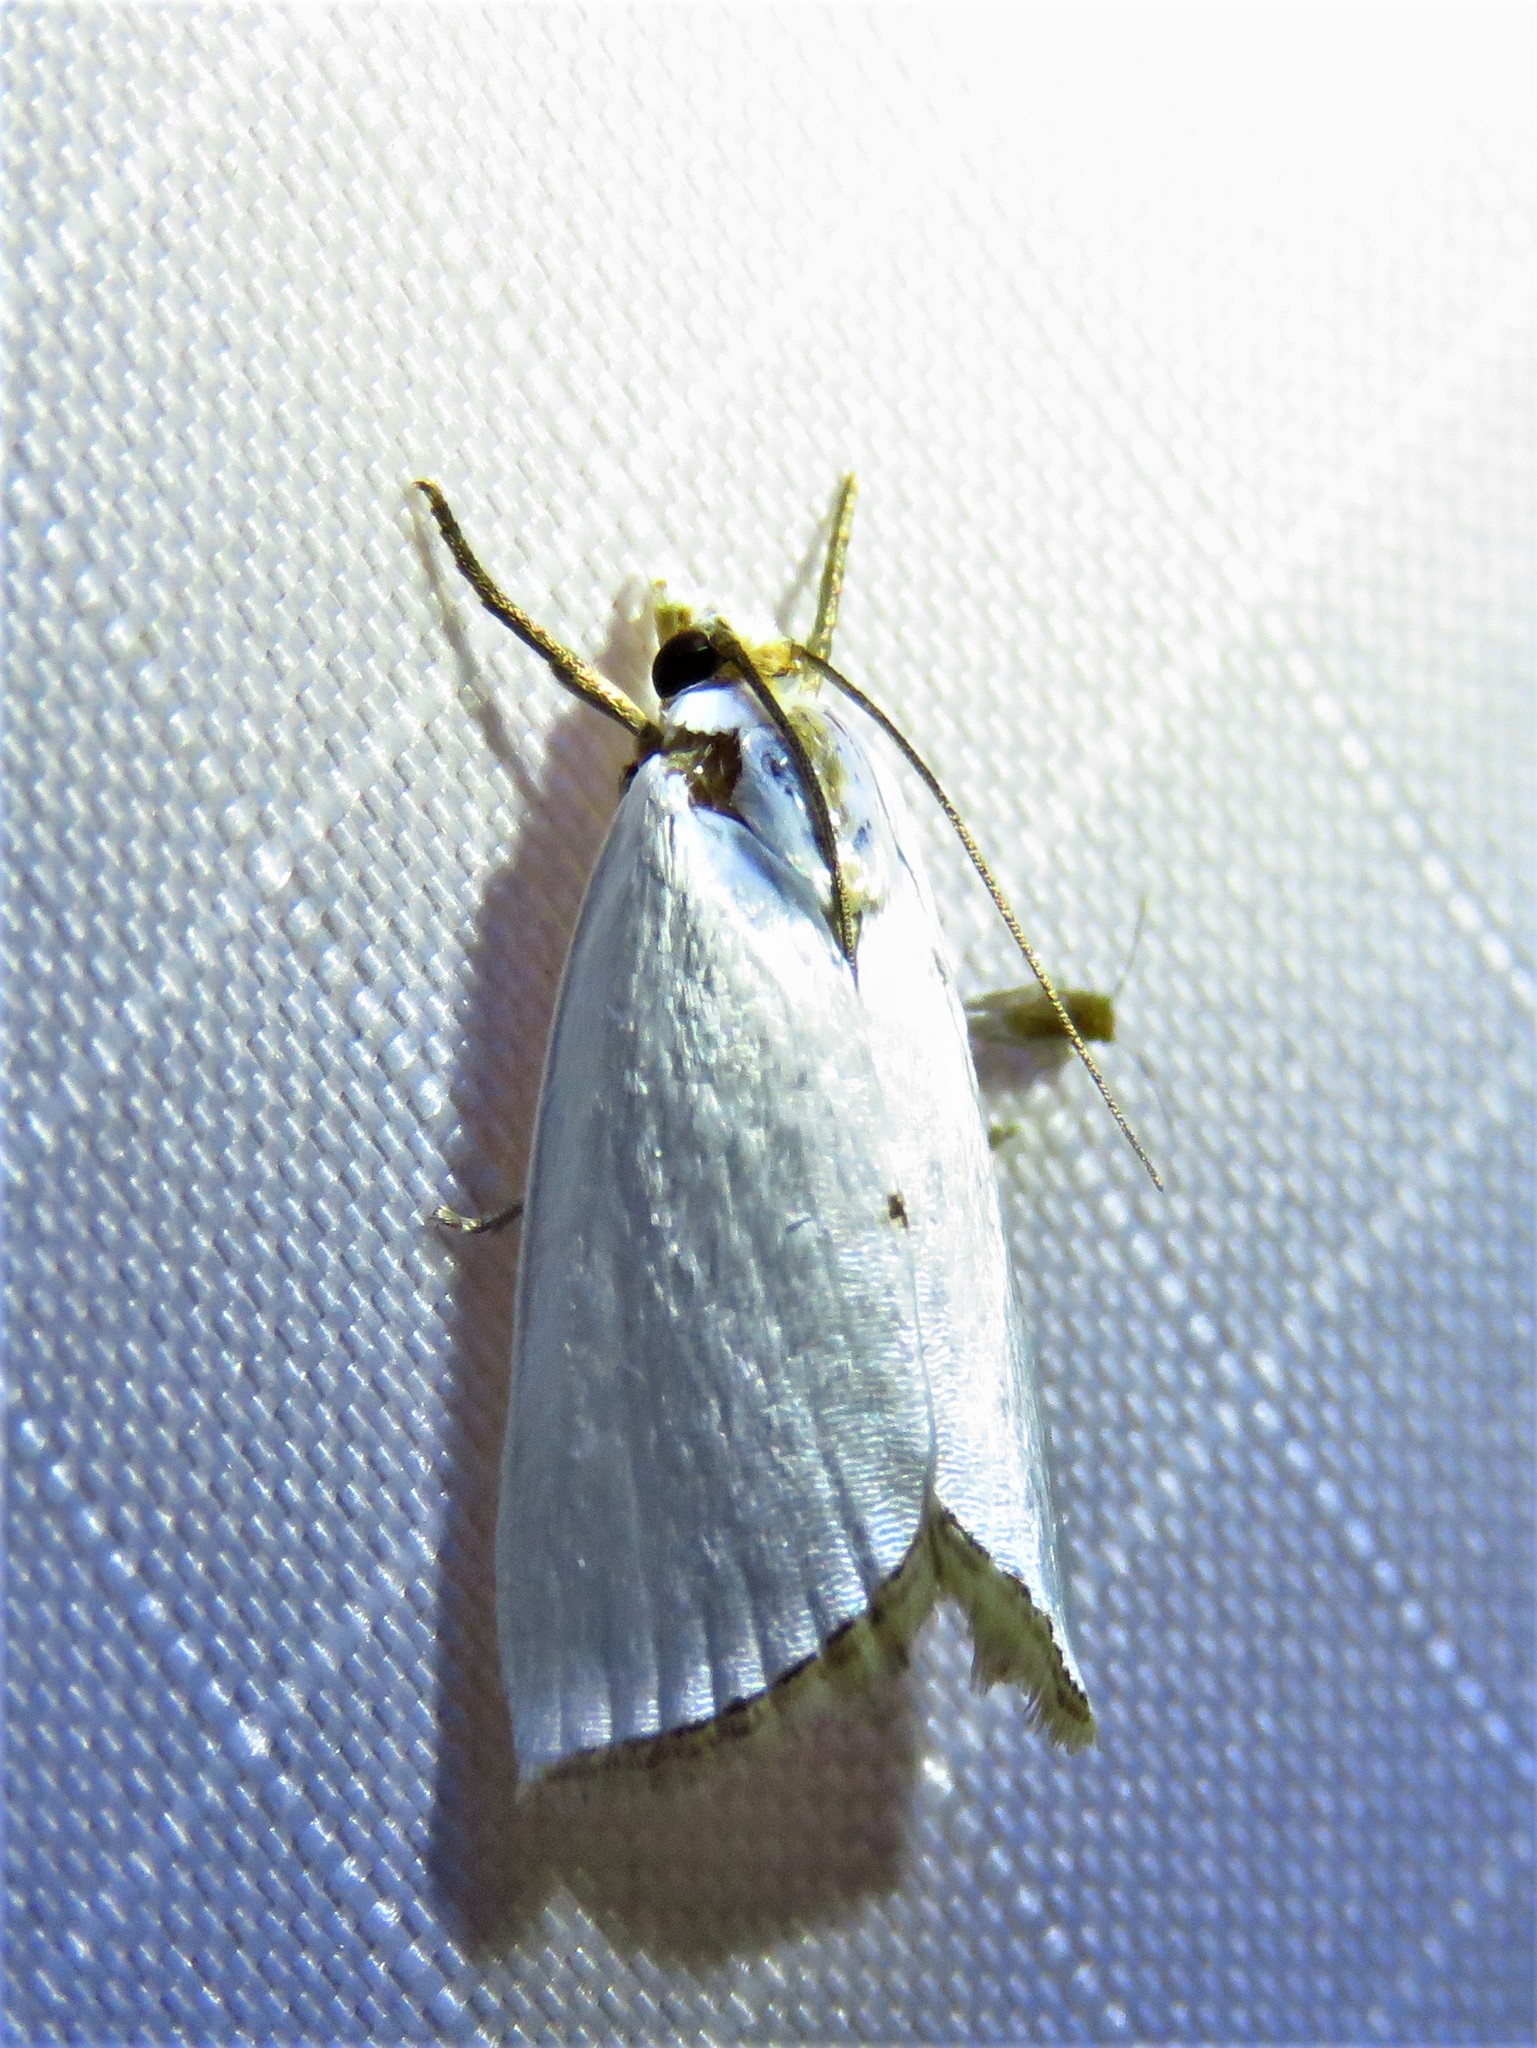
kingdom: Animalia
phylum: Arthropoda
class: Insecta
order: Lepidoptera
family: Crambidae
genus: Argyria
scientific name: Argyria nivalis
